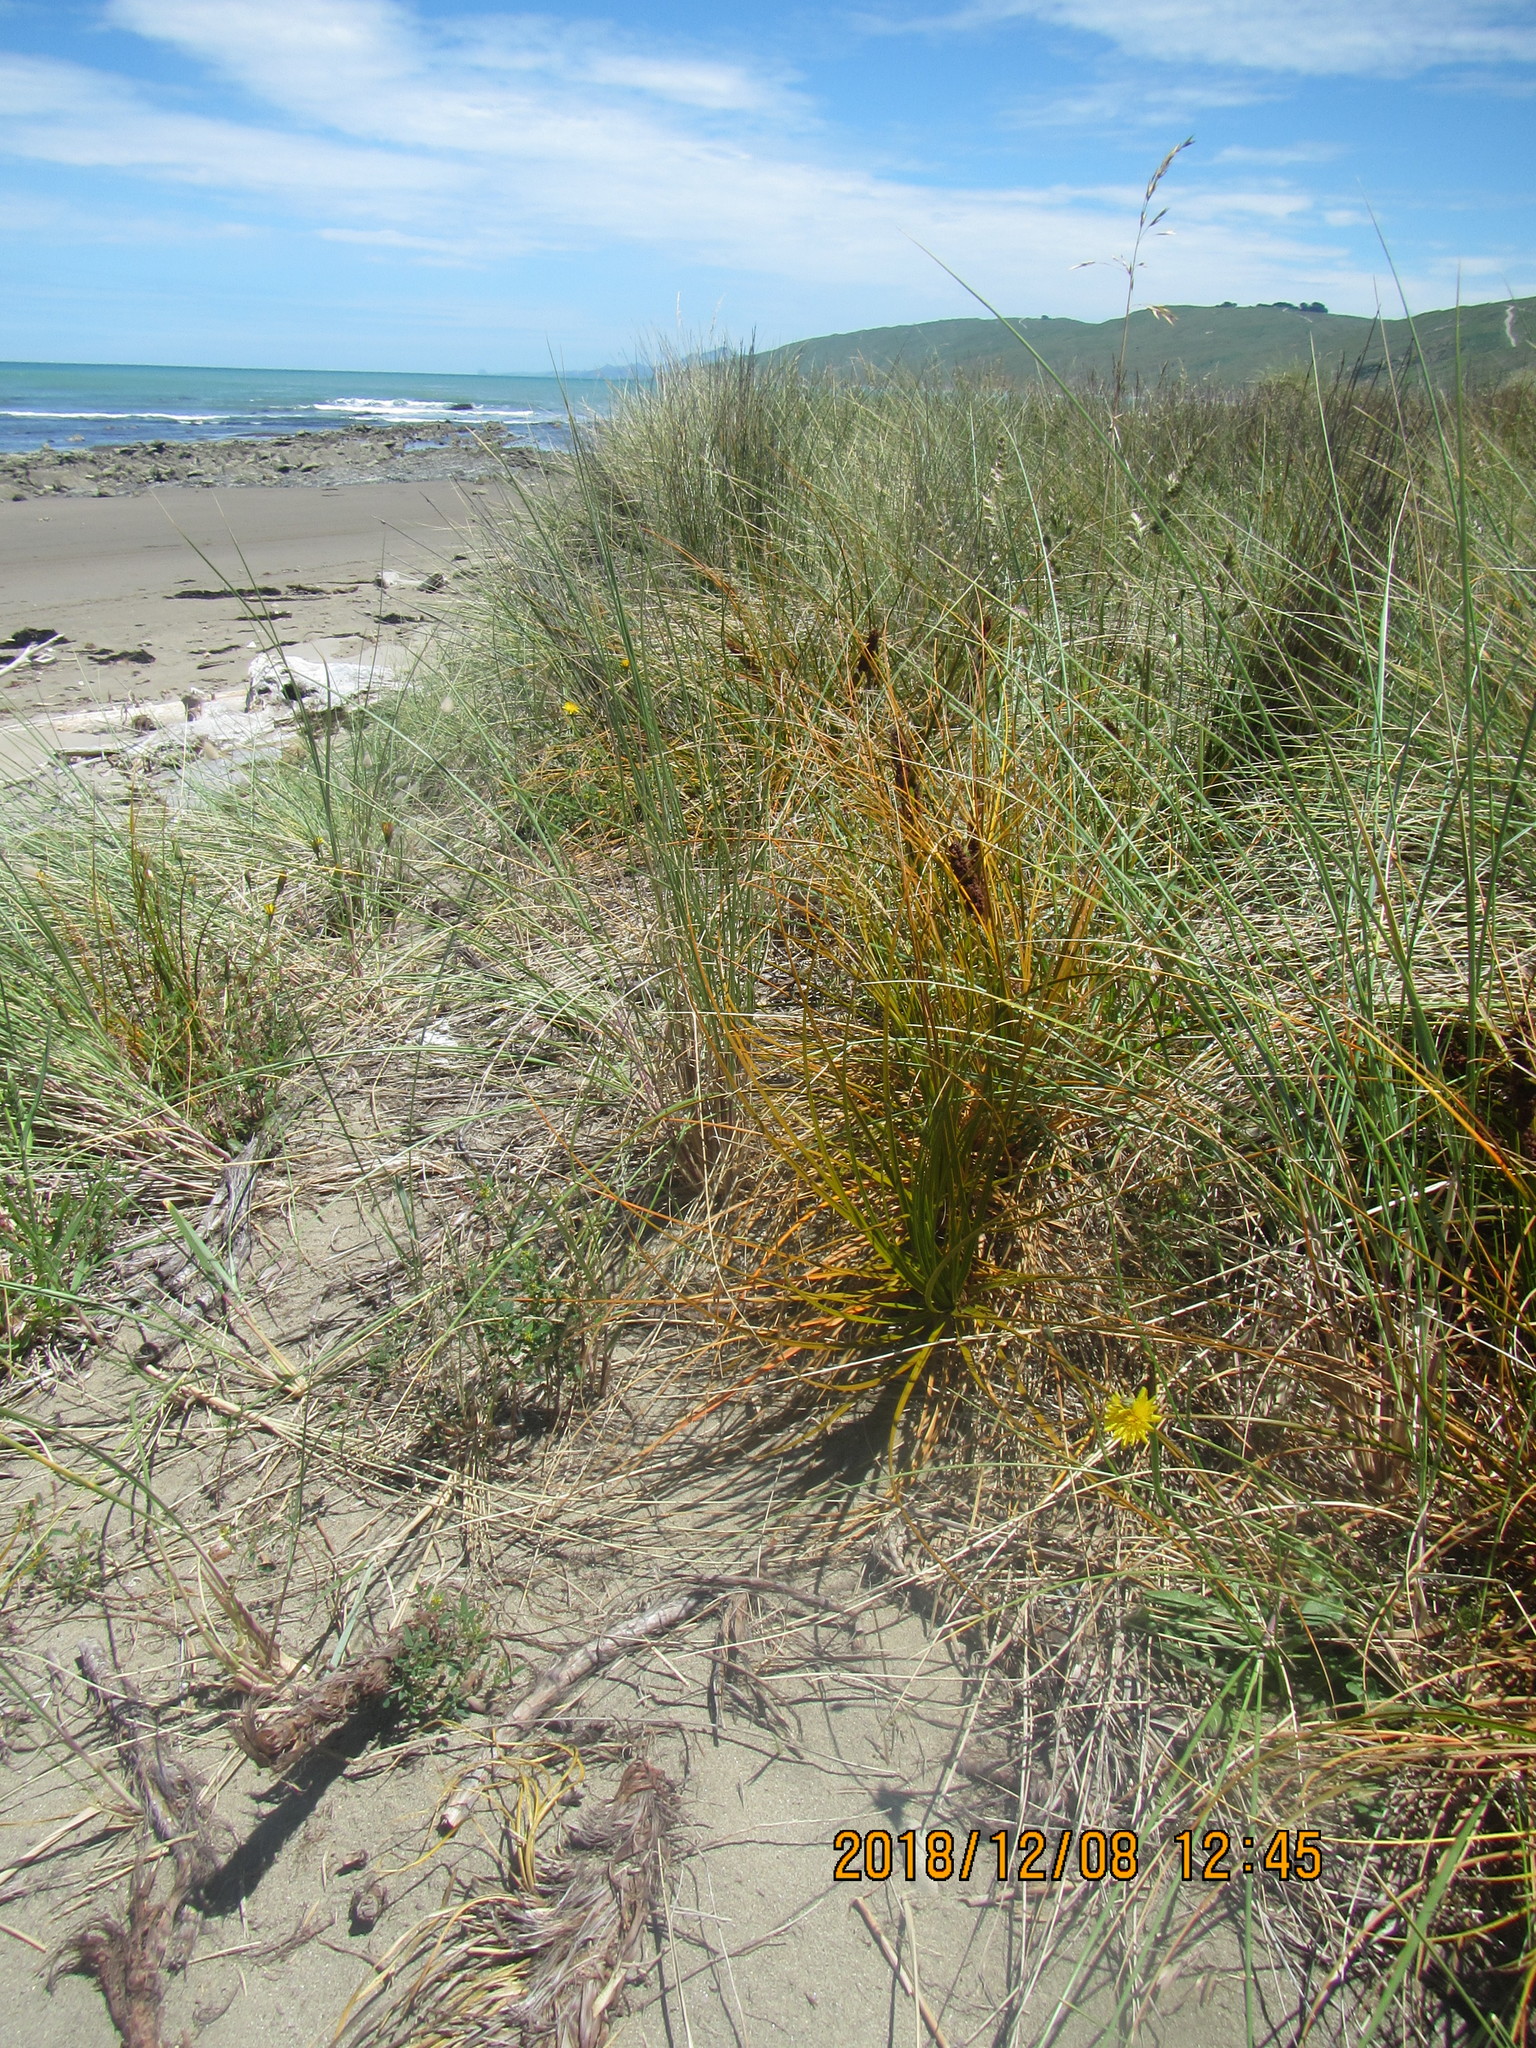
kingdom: Plantae
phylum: Tracheophyta
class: Liliopsida
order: Poales
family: Cyperaceae
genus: Ficinia
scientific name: Ficinia spiralis
